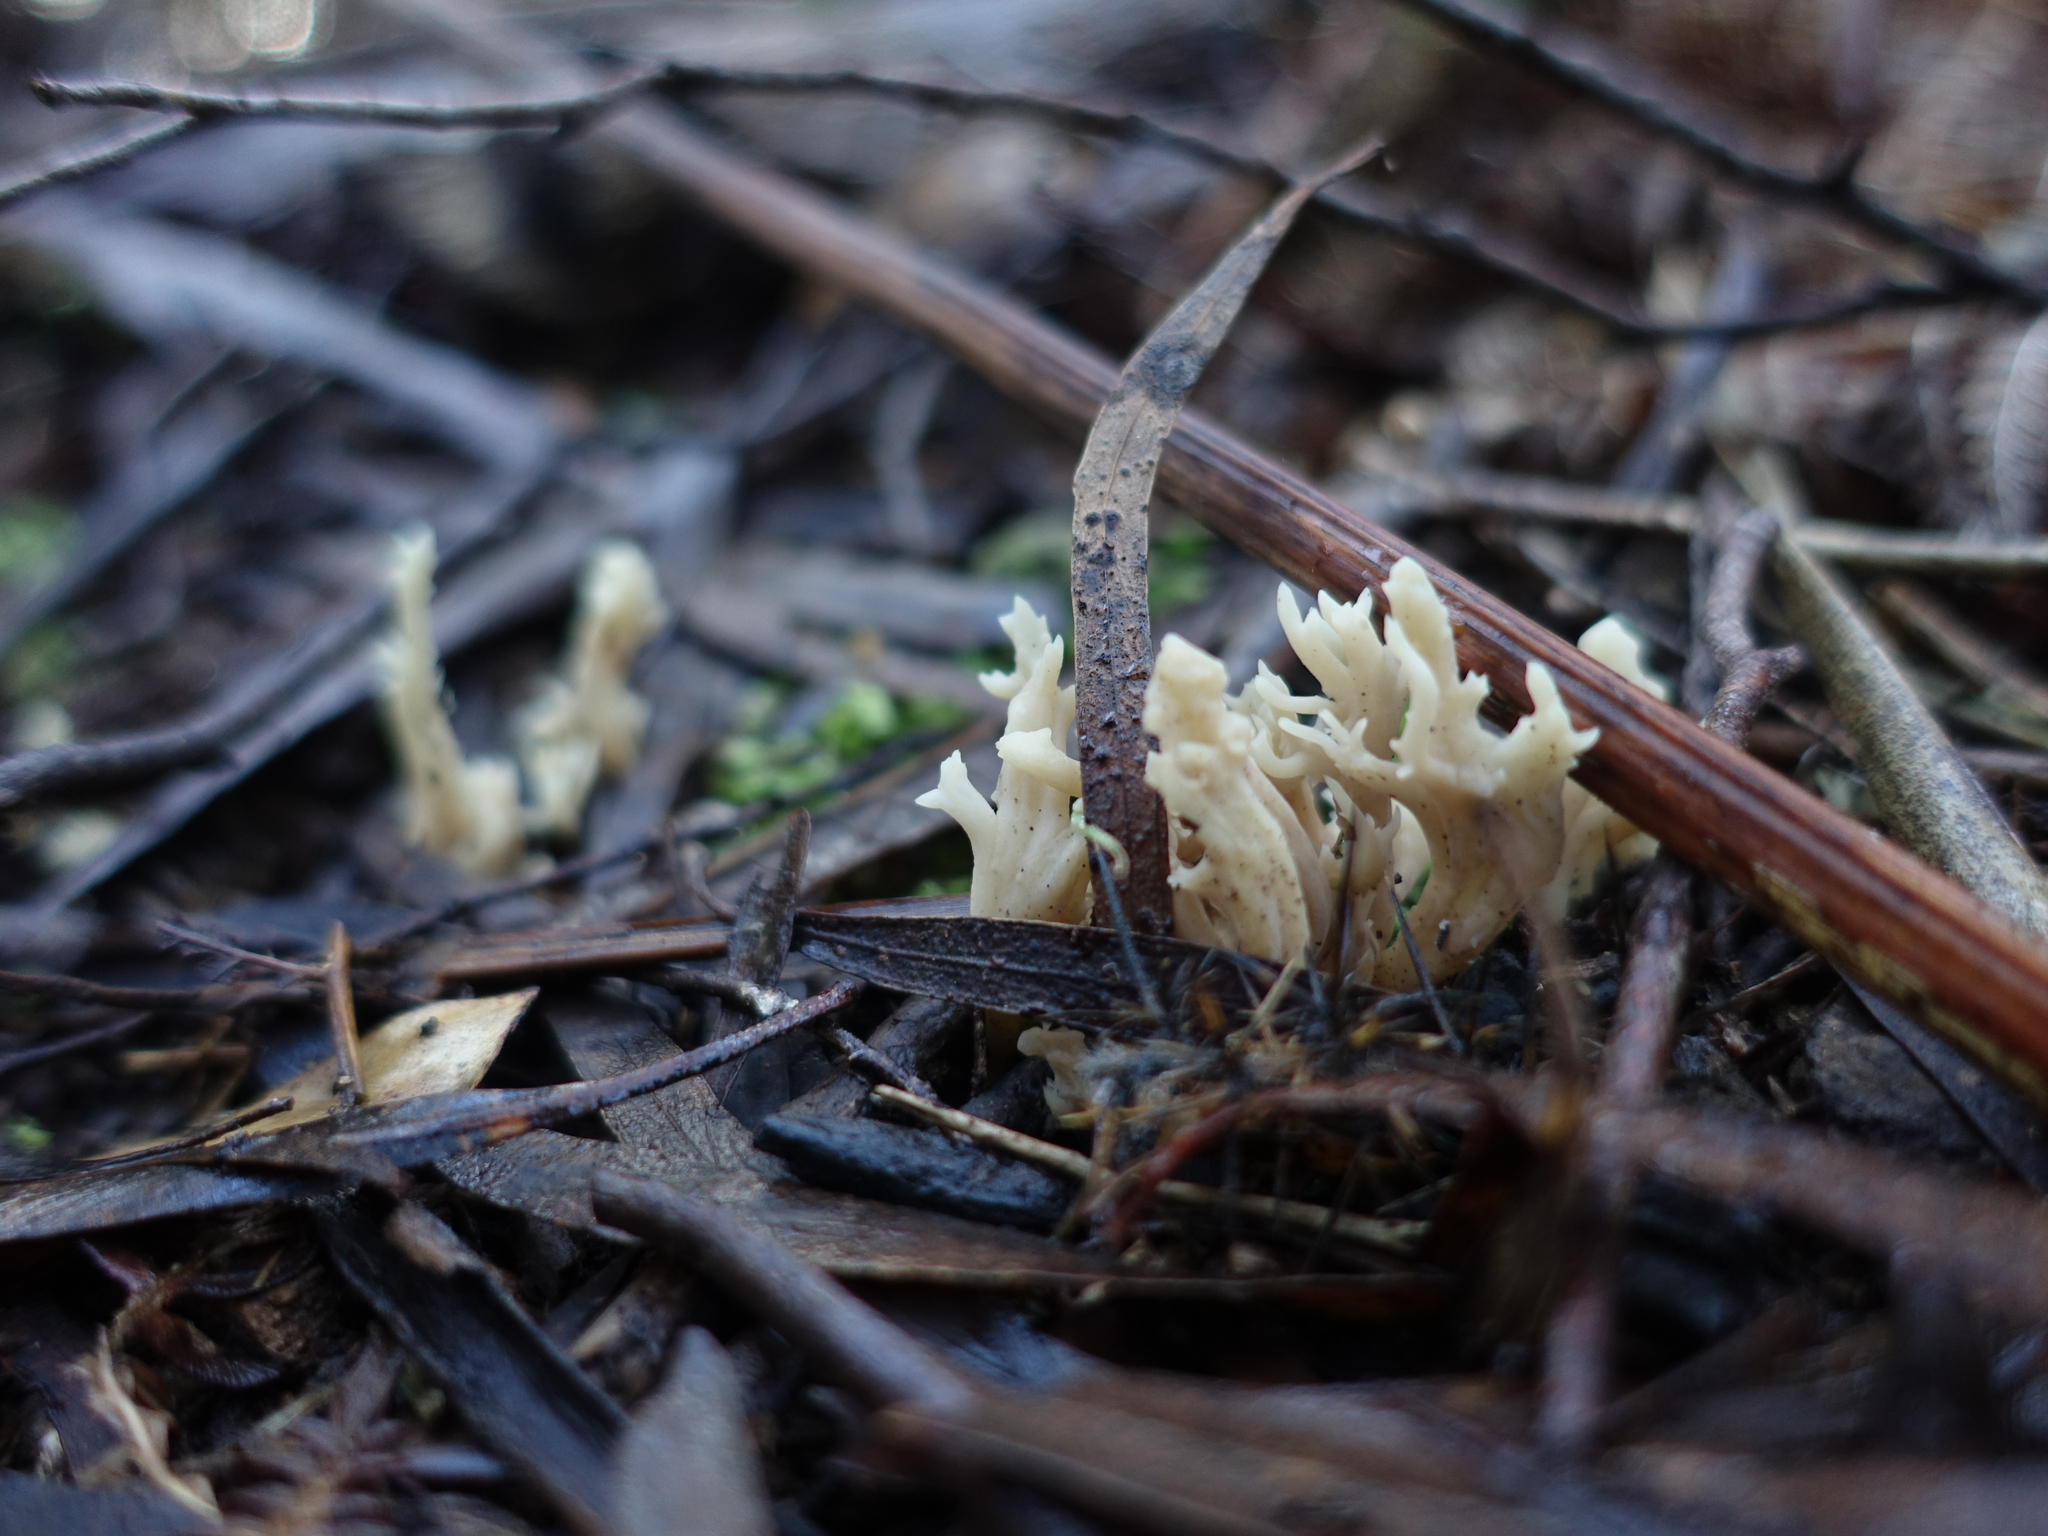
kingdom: Fungi
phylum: Basidiomycota
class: Agaricomycetes
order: Cantharellales
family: Hydnaceae
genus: Clavulina
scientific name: Clavulina subrugosa
